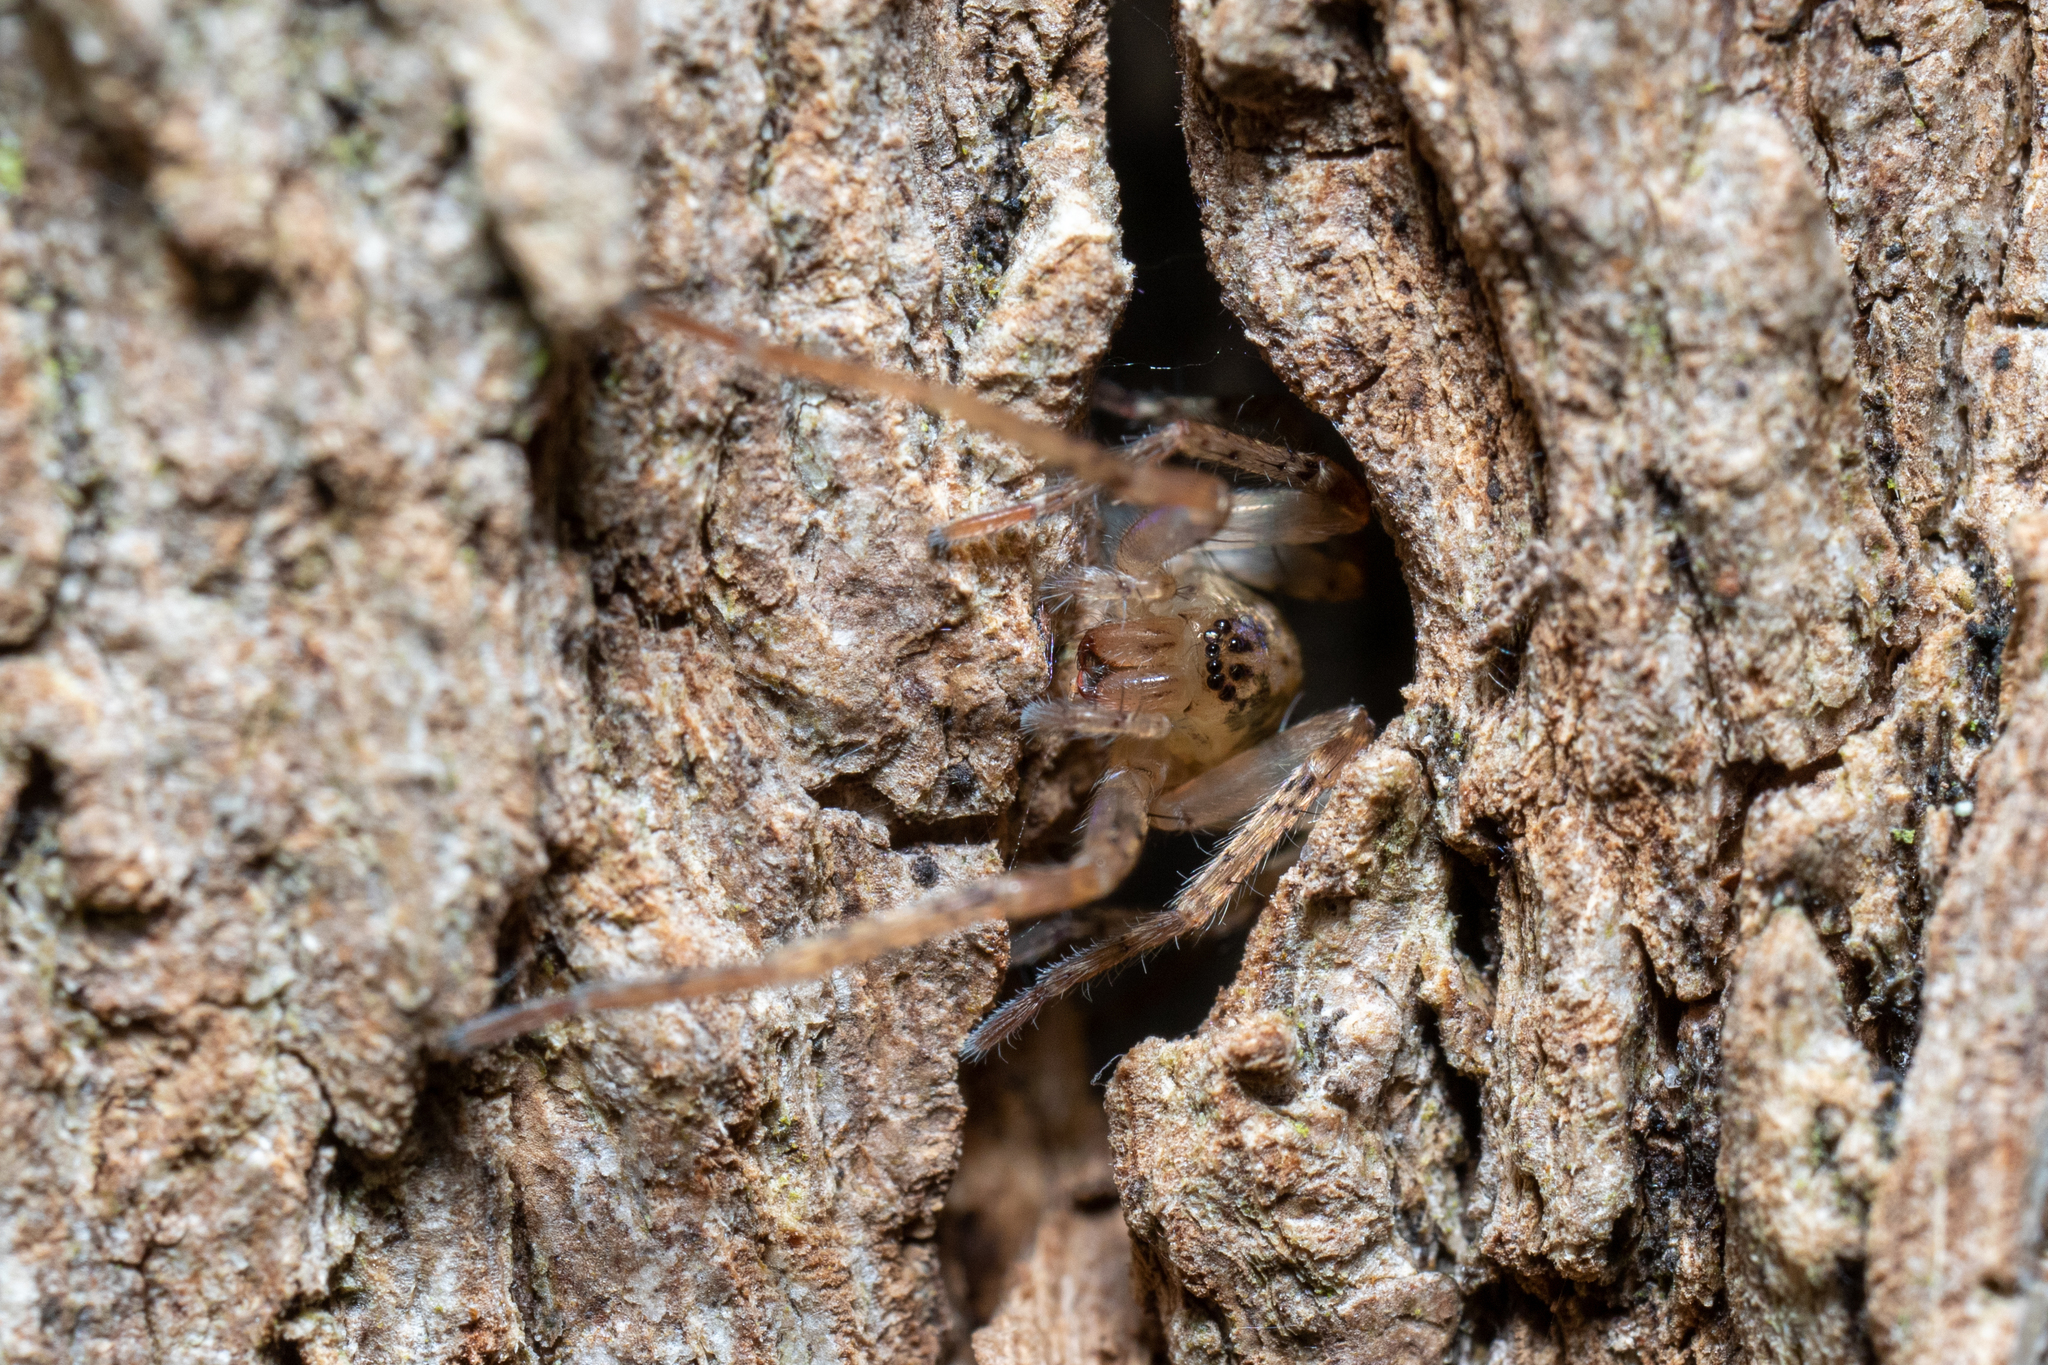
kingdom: Animalia
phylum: Arthropoda
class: Arachnida
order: Araneae
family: Anyphaenidae
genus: Anyphaena
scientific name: Anyphaena accentuata
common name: Buzzing spider
